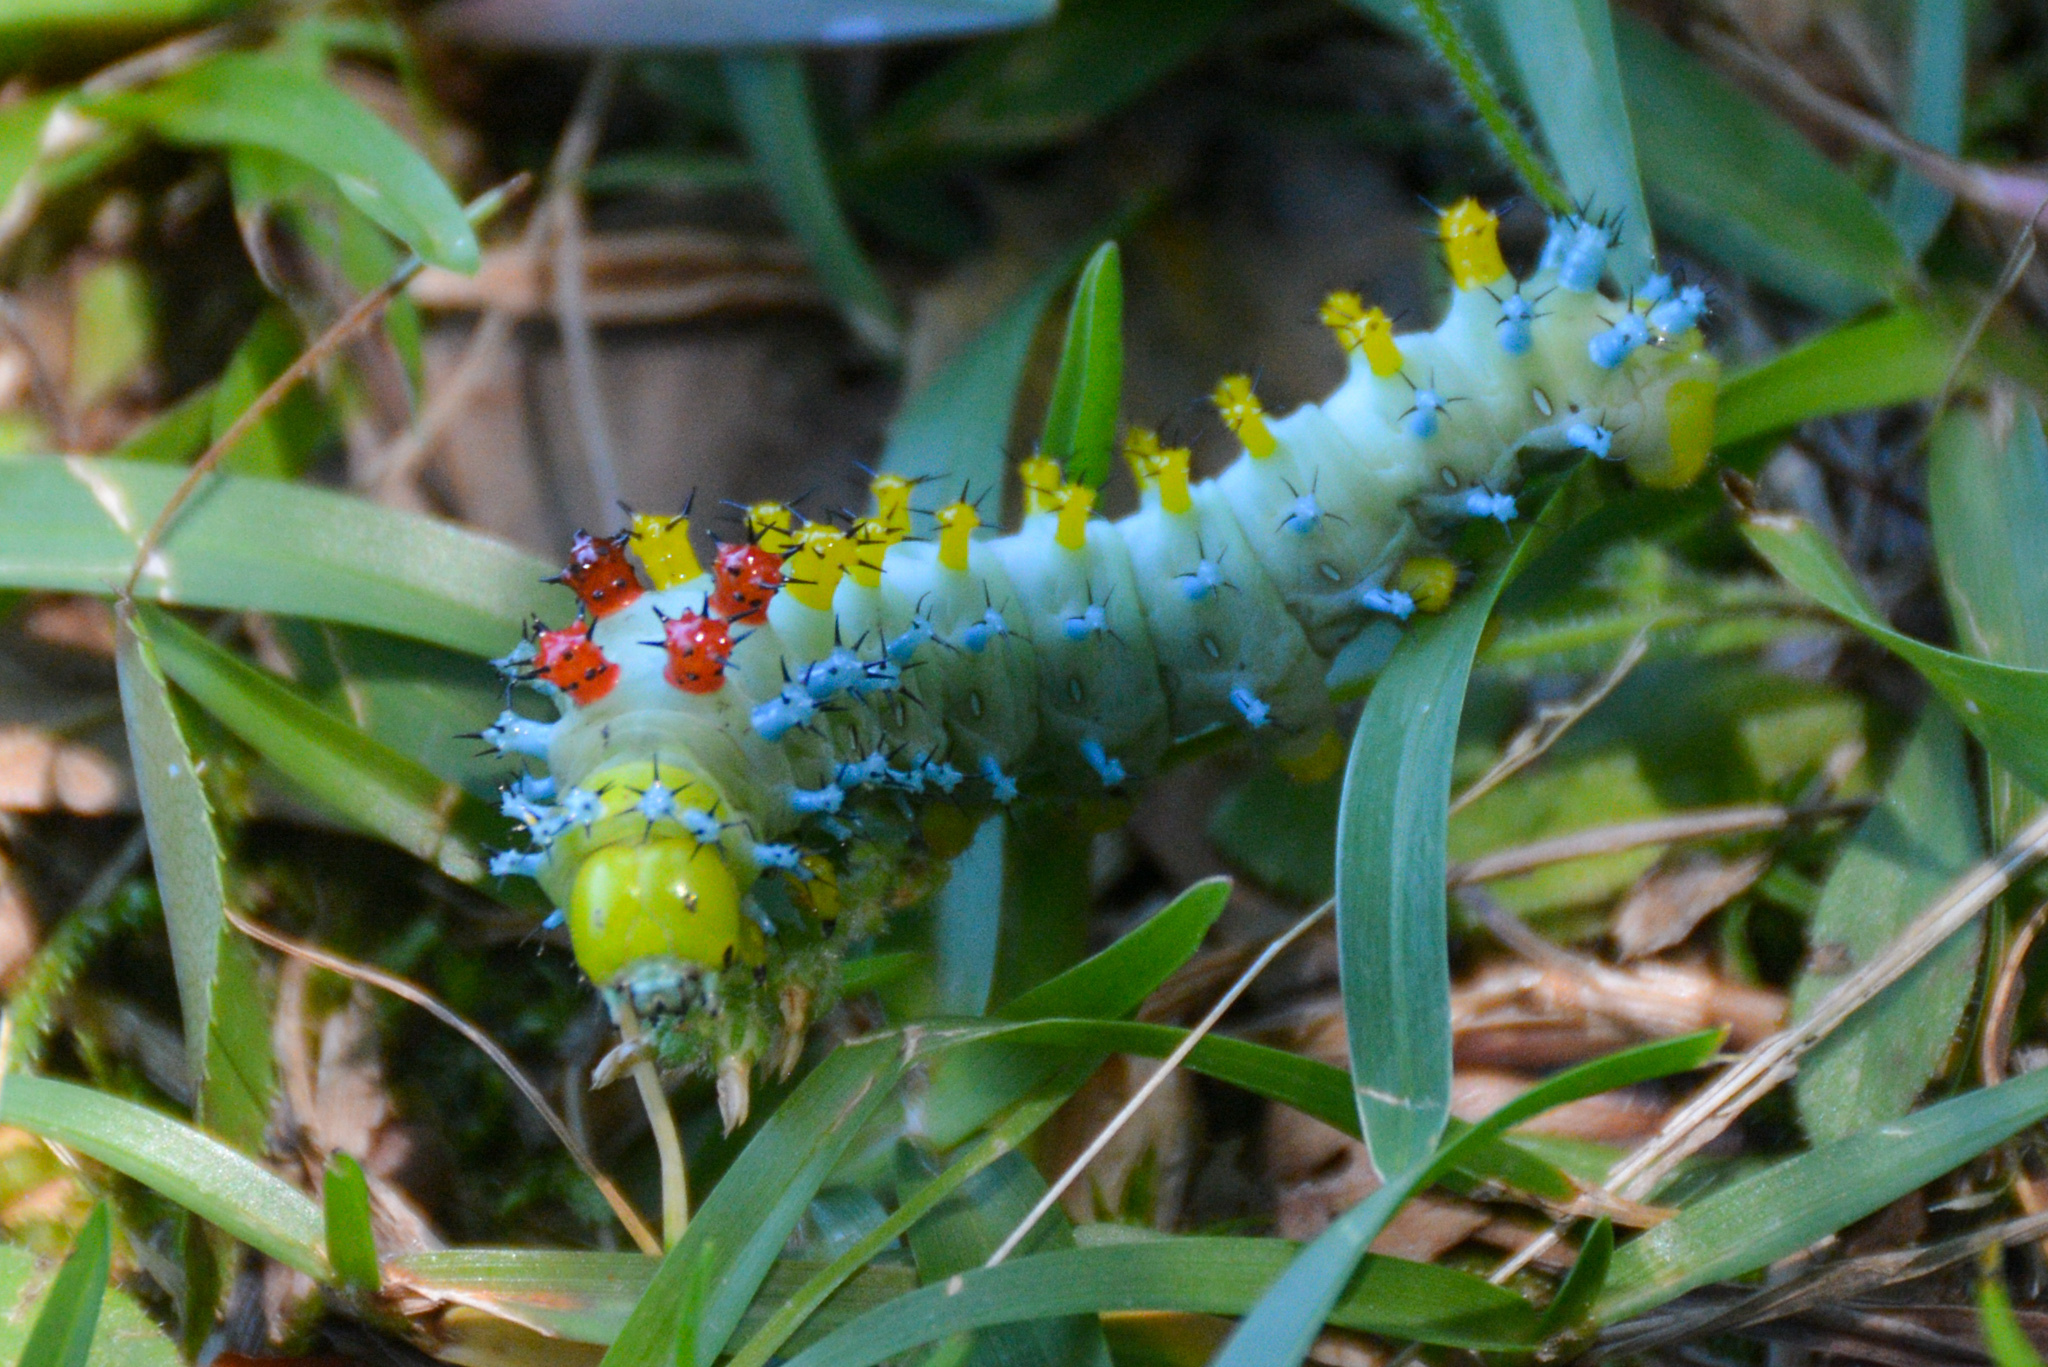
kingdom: Animalia
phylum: Arthropoda
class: Insecta
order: Lepidoptera
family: Saturniidae
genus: Hyalophora
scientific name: Hyalophora cecropia
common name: Cecropia silkmoth
